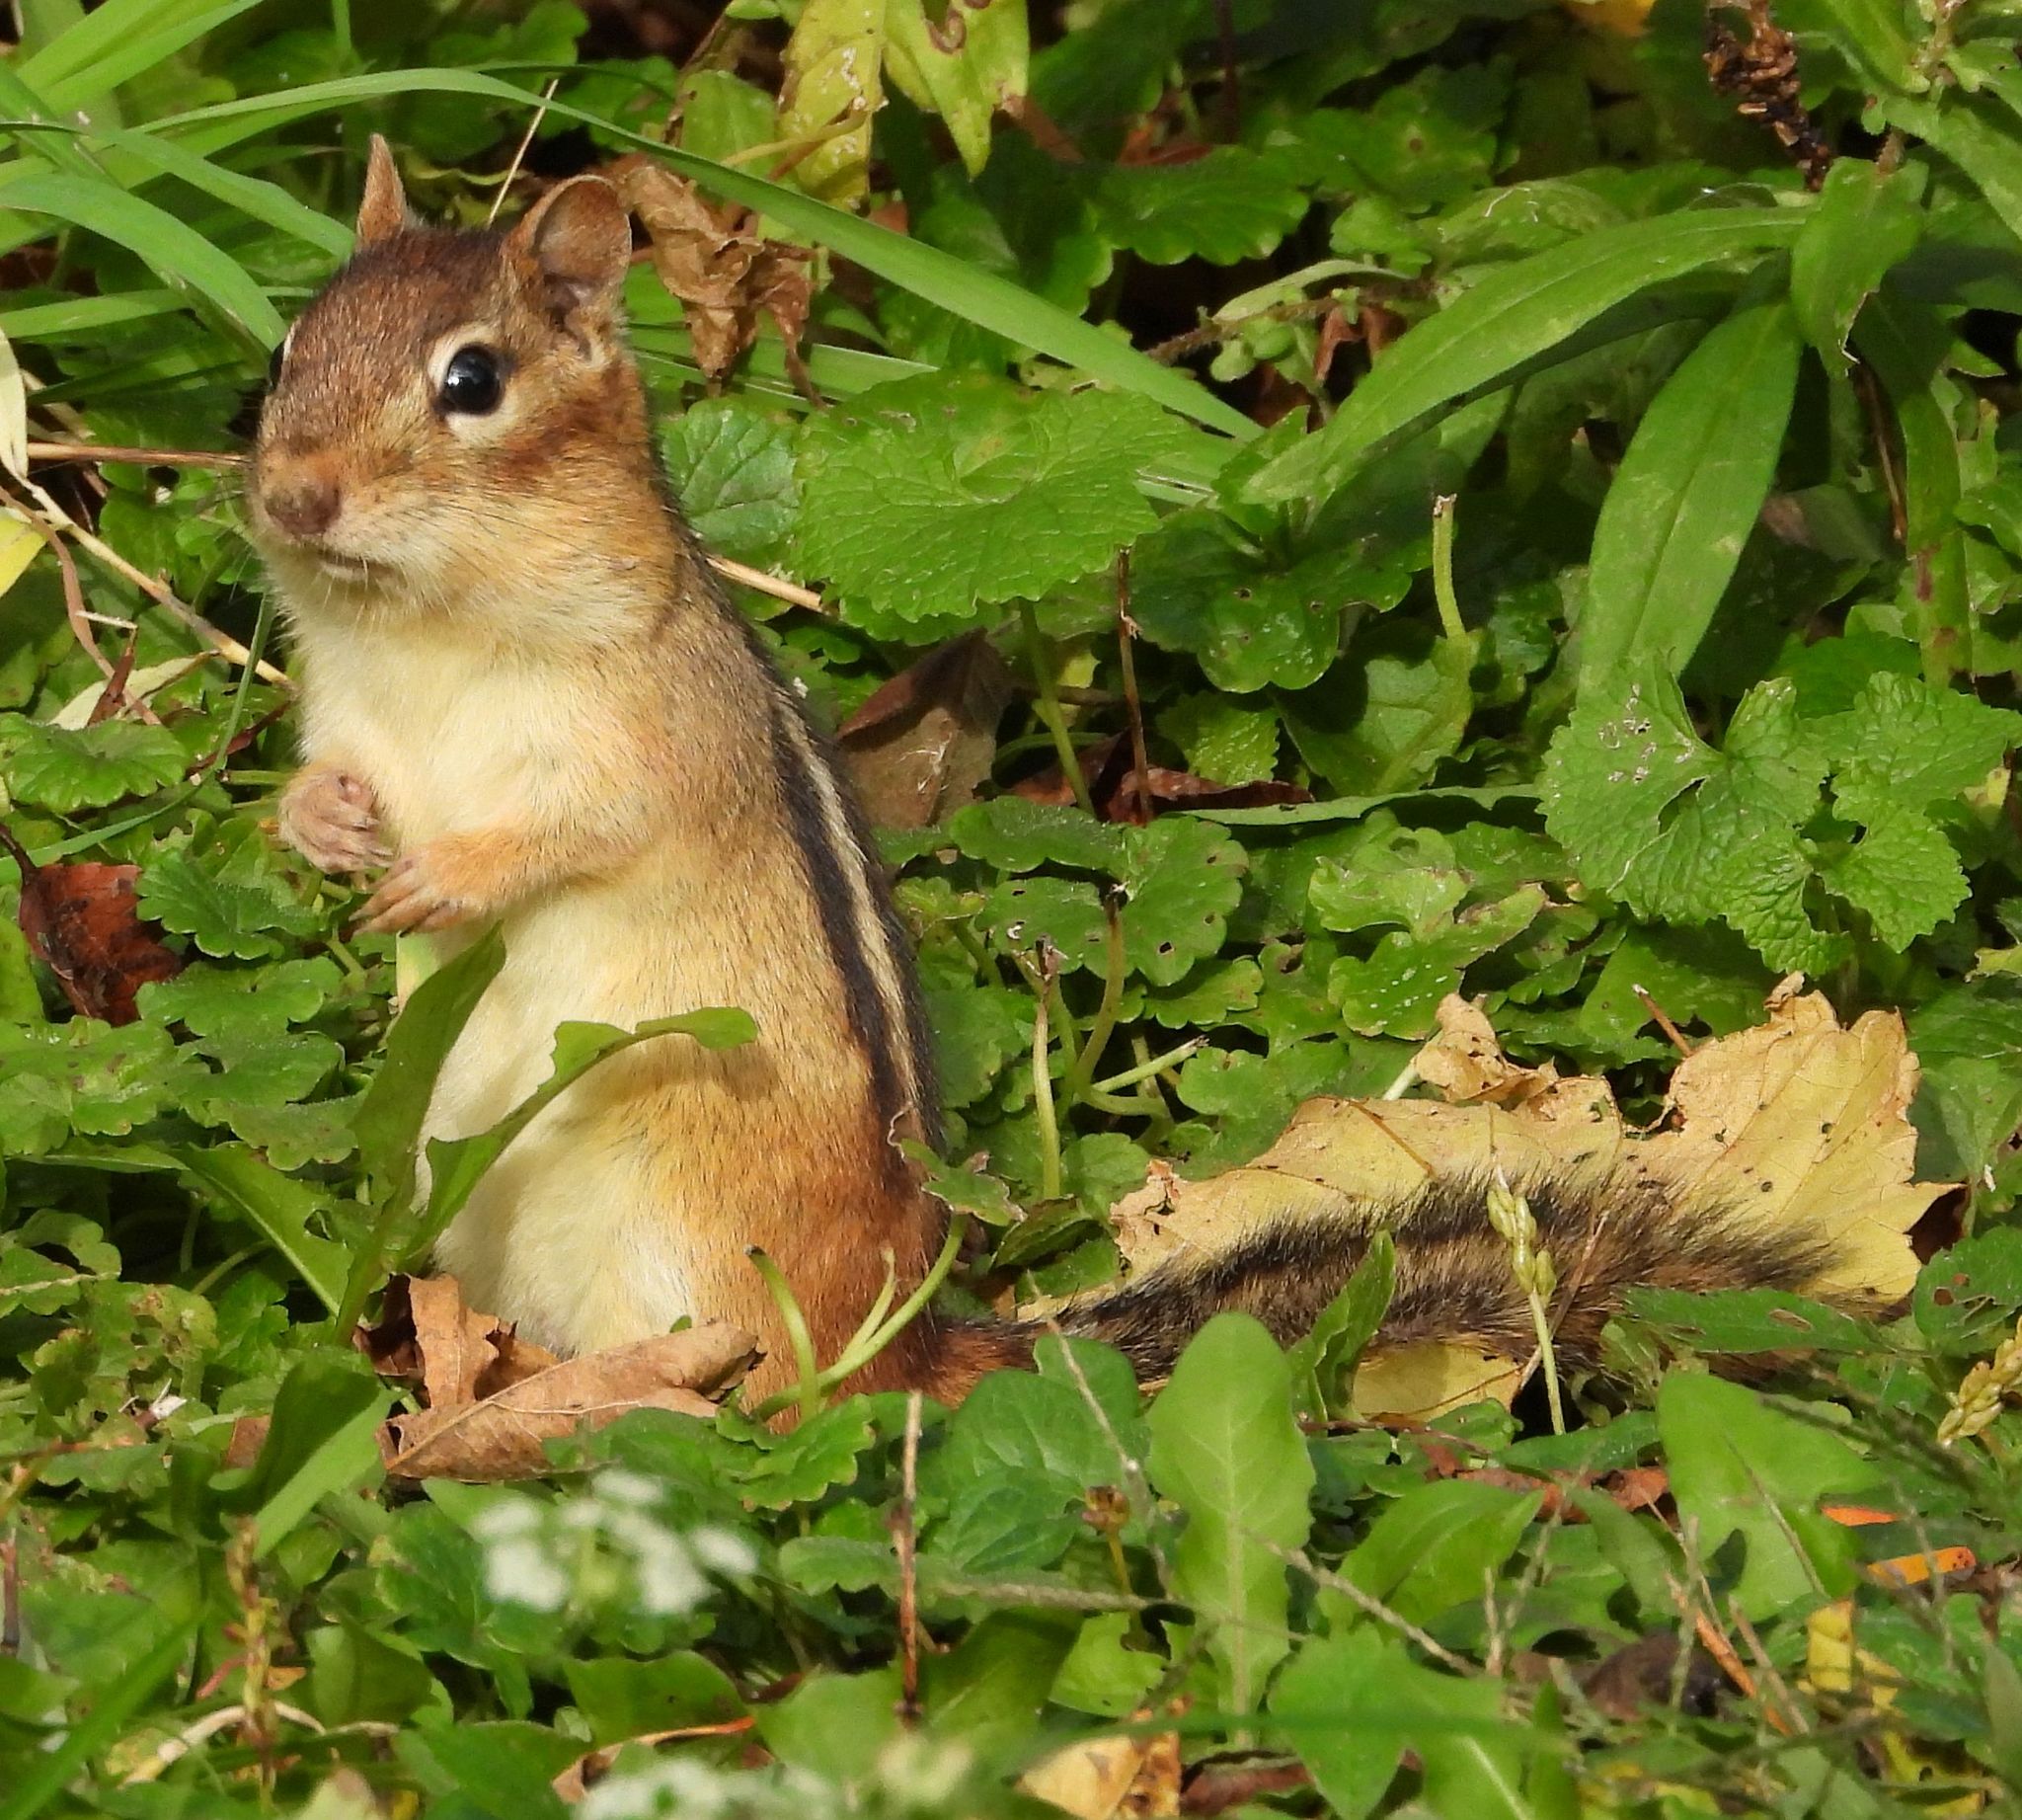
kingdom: Animalia
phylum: Chordata
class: Mammalia
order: Rodentia
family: Sciuridae
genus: Tamias
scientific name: Tamias striatus
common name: Eastern chipmunk
